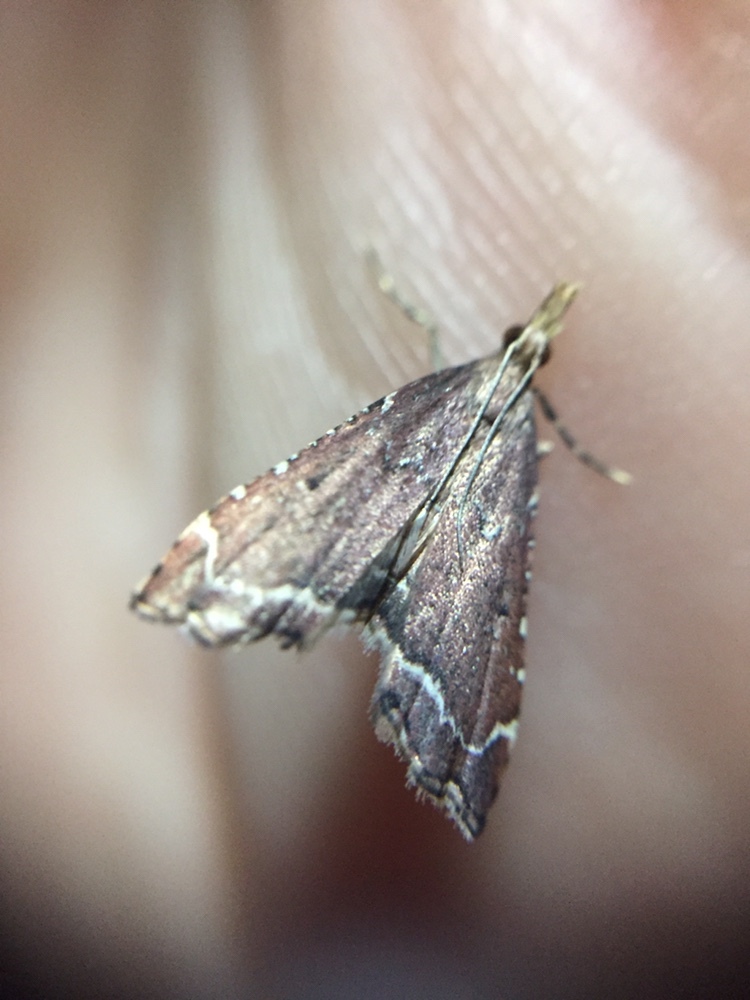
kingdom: Animalia
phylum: Arthropoda
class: Insecta
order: Lepidoptera
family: Crambidae
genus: Diplopseustis
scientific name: Diplopseustis perieresalis
